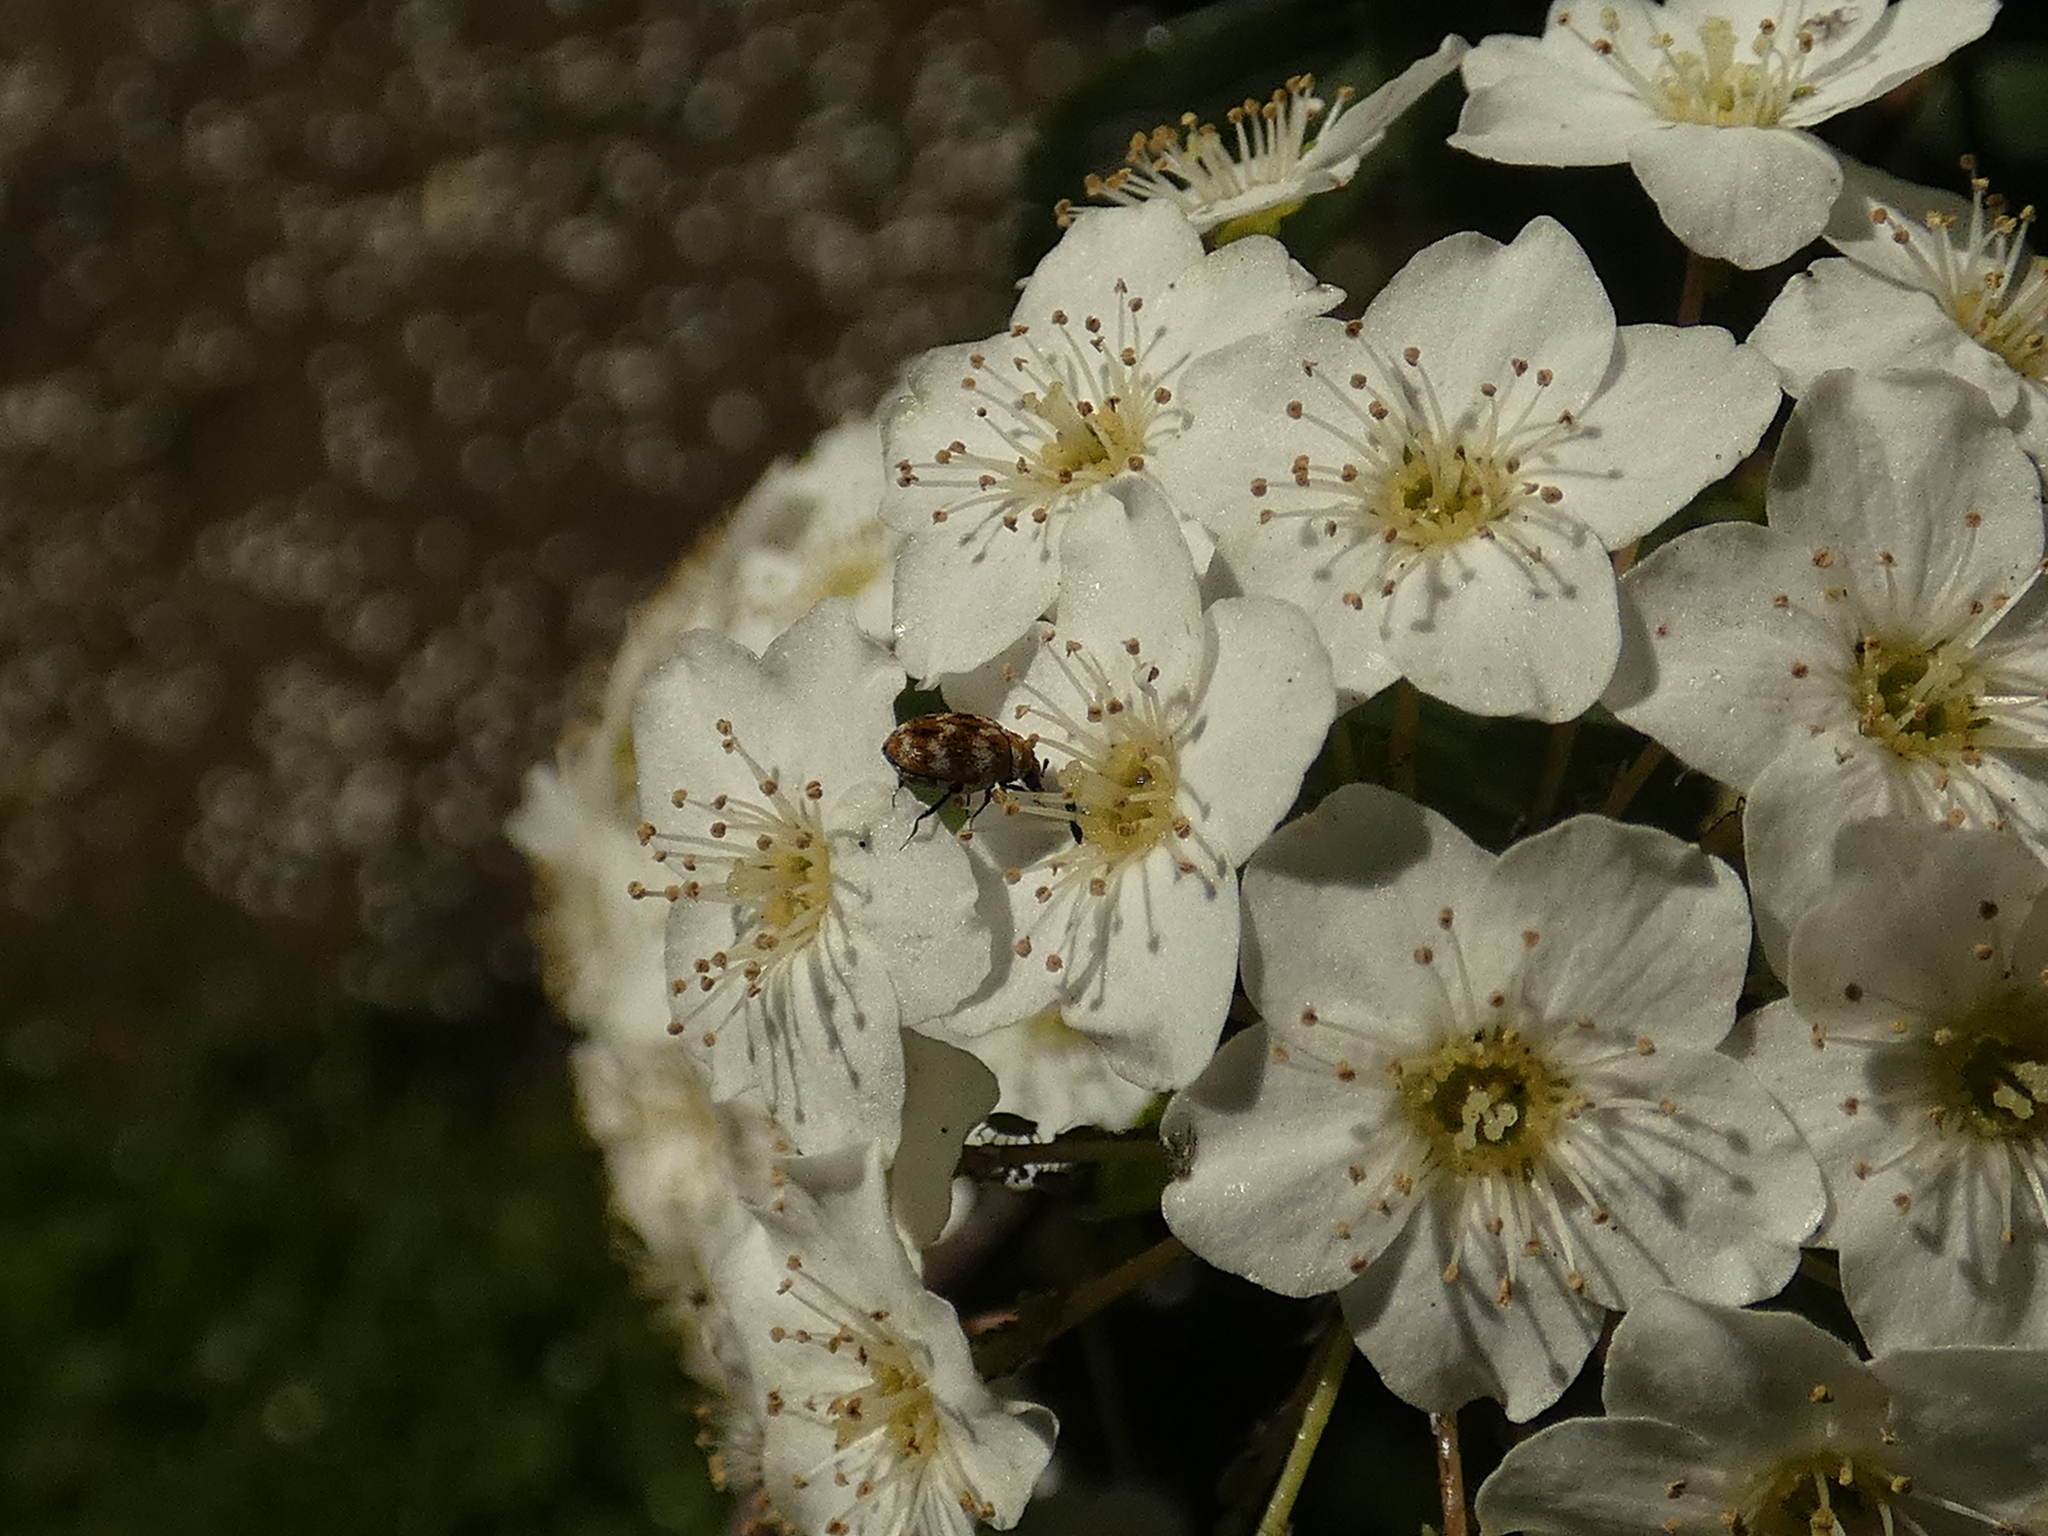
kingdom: Animalia
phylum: Arthropoda
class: Insecta
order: Coleoptera
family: Dermestidae
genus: Anthrenus
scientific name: Anthrenus verbasci
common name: Varied carpet beetle
